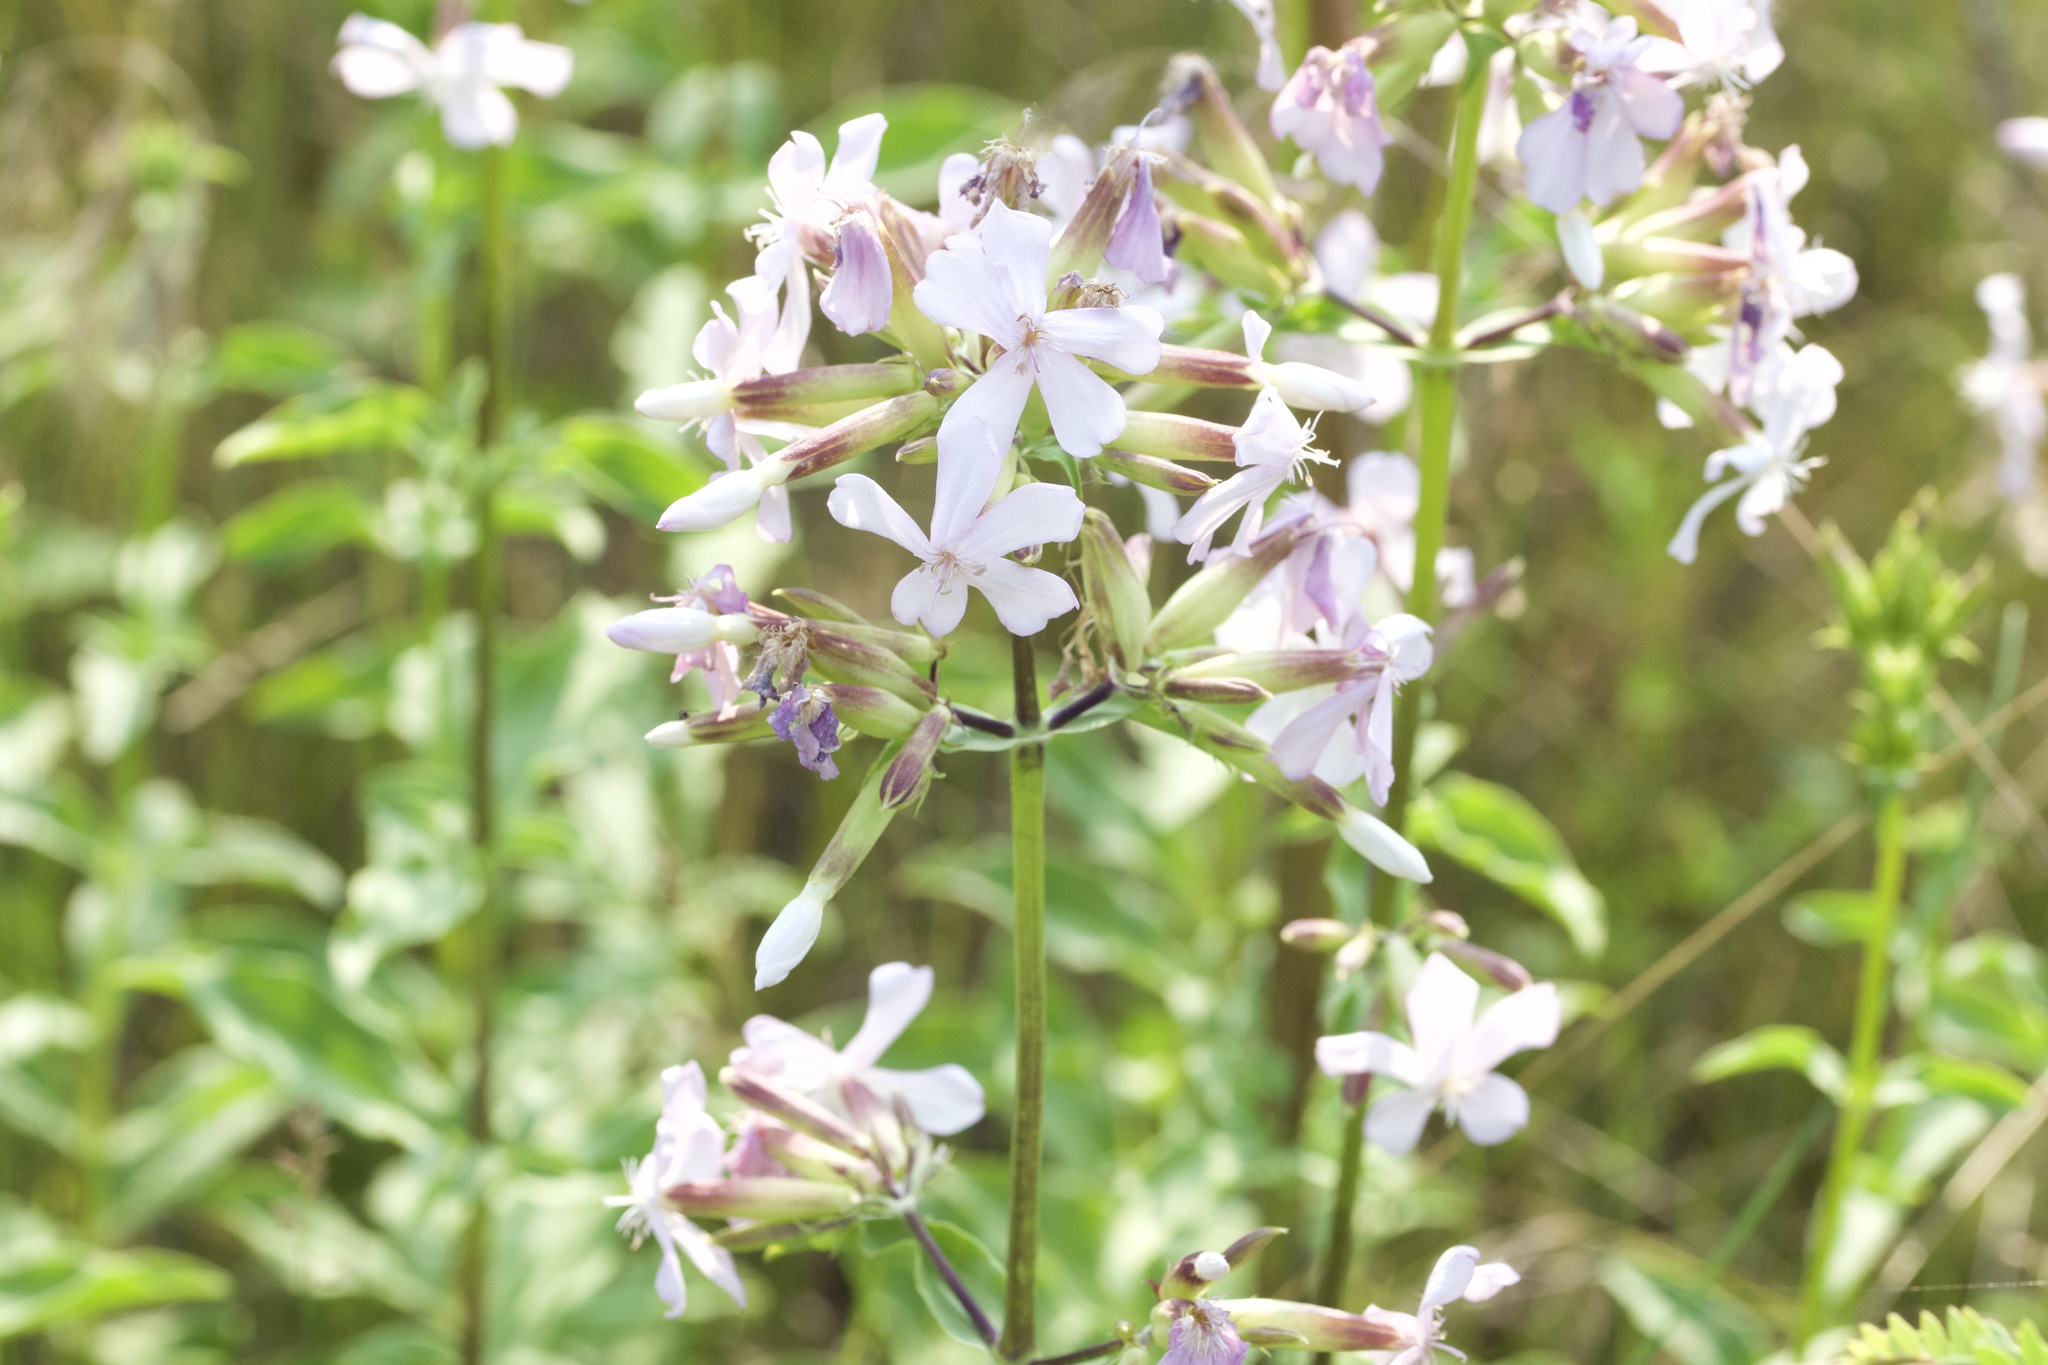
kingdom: Plantae
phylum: Tracheophyta
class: Magnoliopsida
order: Caryophyllales
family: Caryophyllaceae
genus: Saponaria
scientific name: Saponaria officinalis
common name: Soapwort
